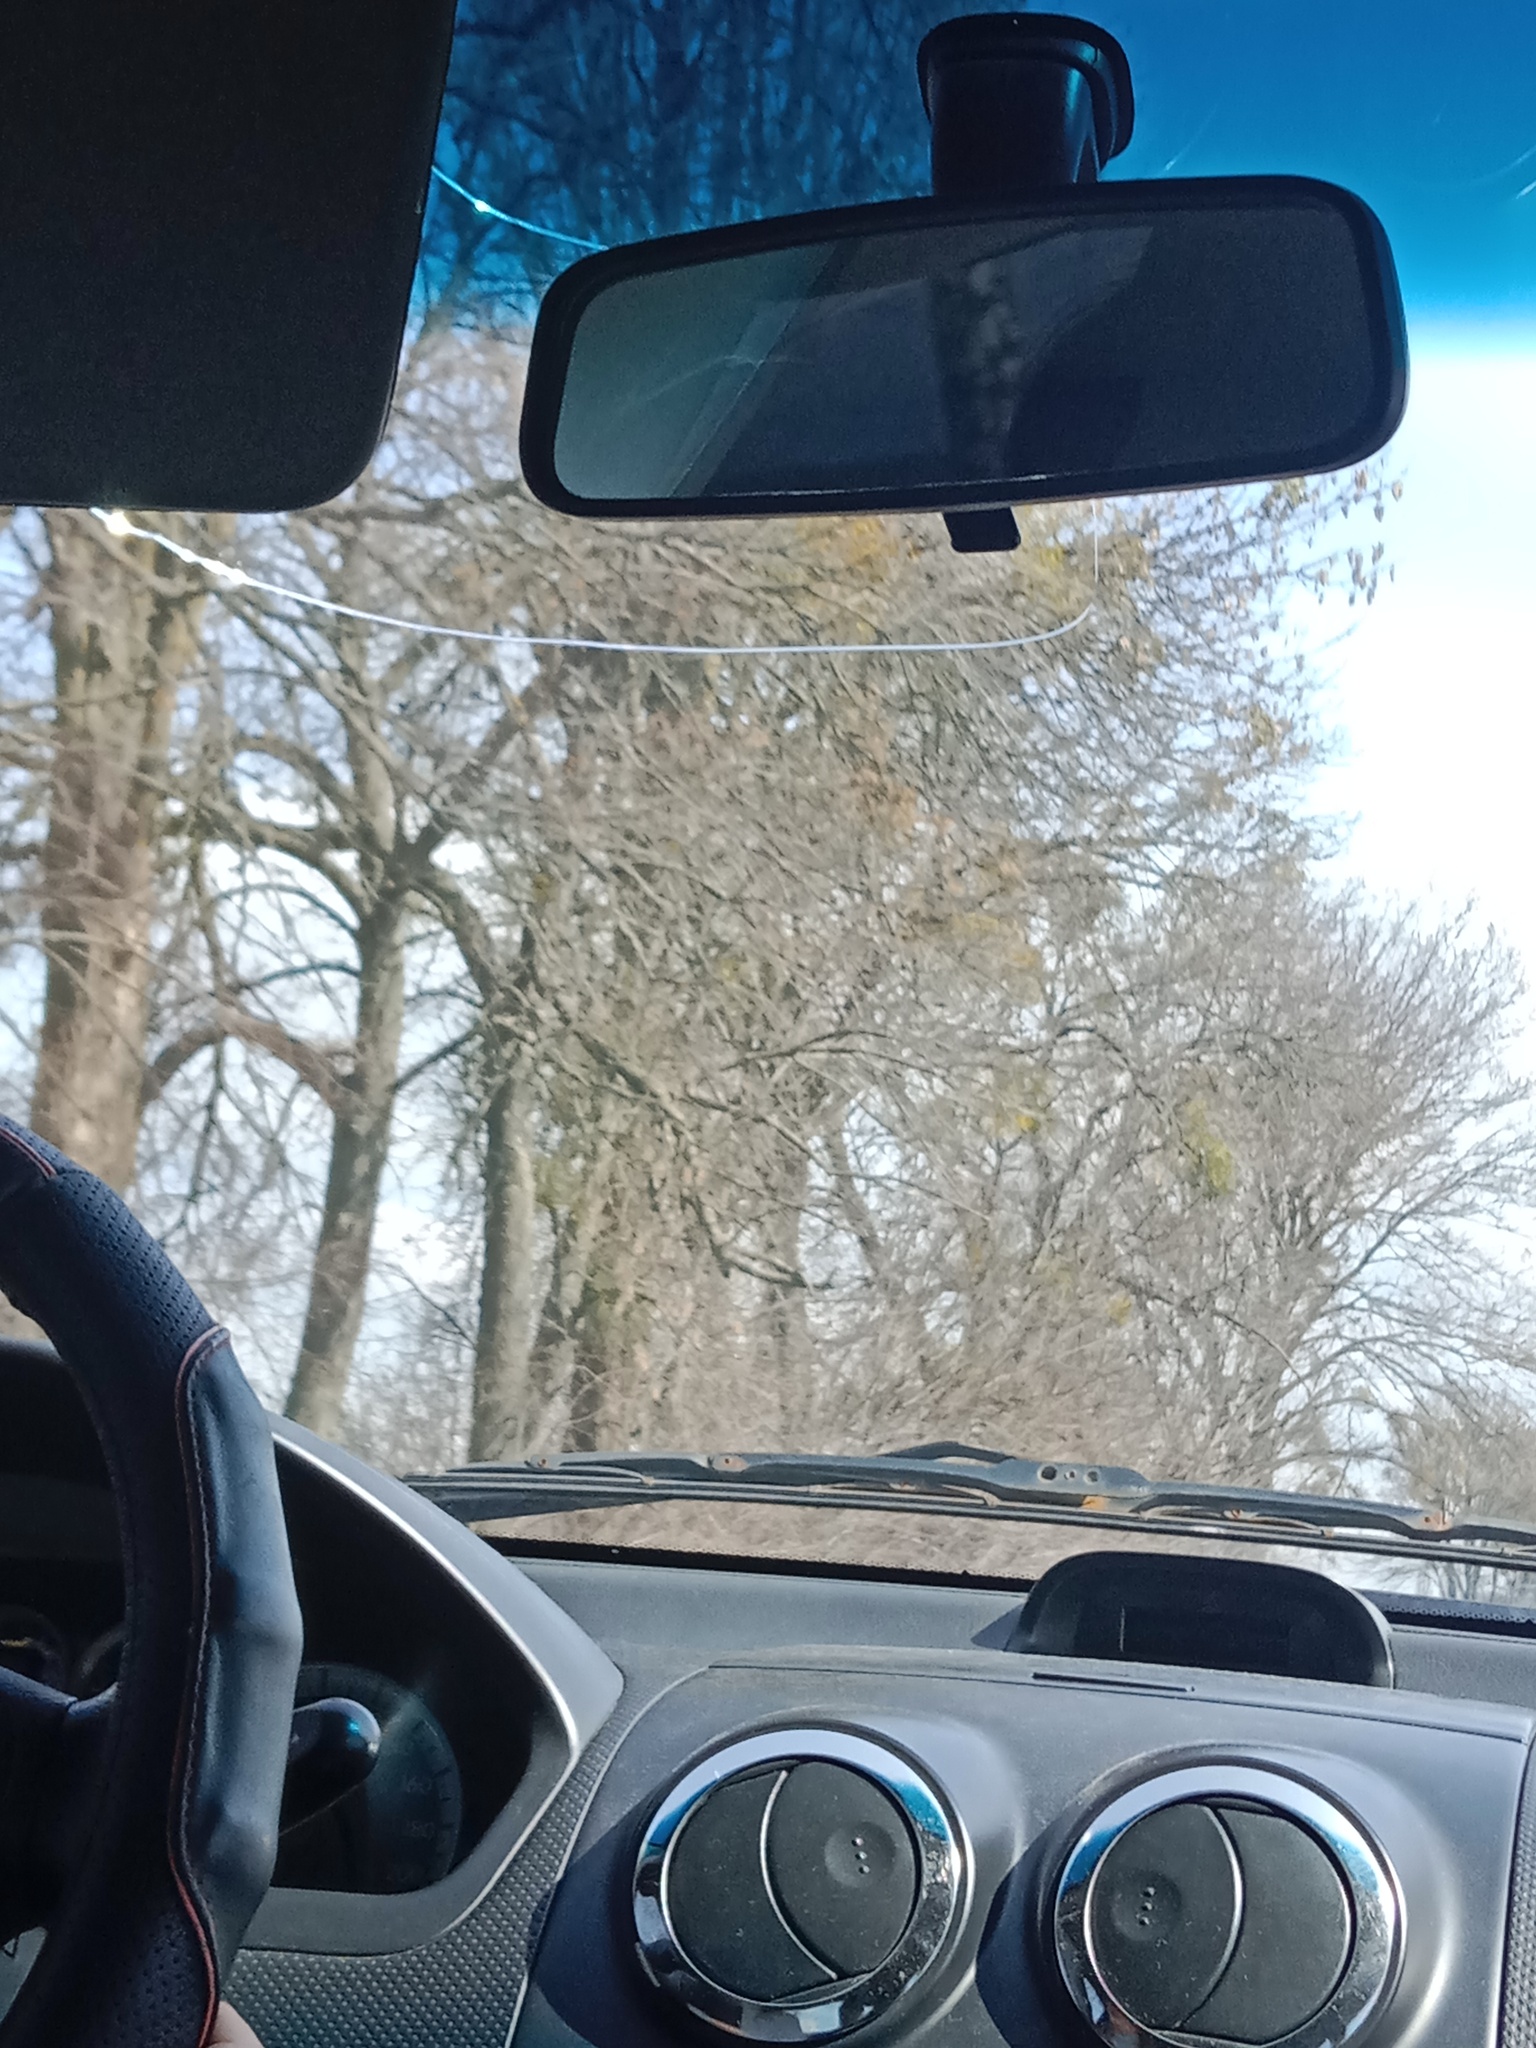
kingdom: Plantae
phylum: Tracheophyta
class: Magnoliopsida
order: Santalales
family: Viscaceae
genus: Viscum
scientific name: Viscum album
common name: Mistletoe
